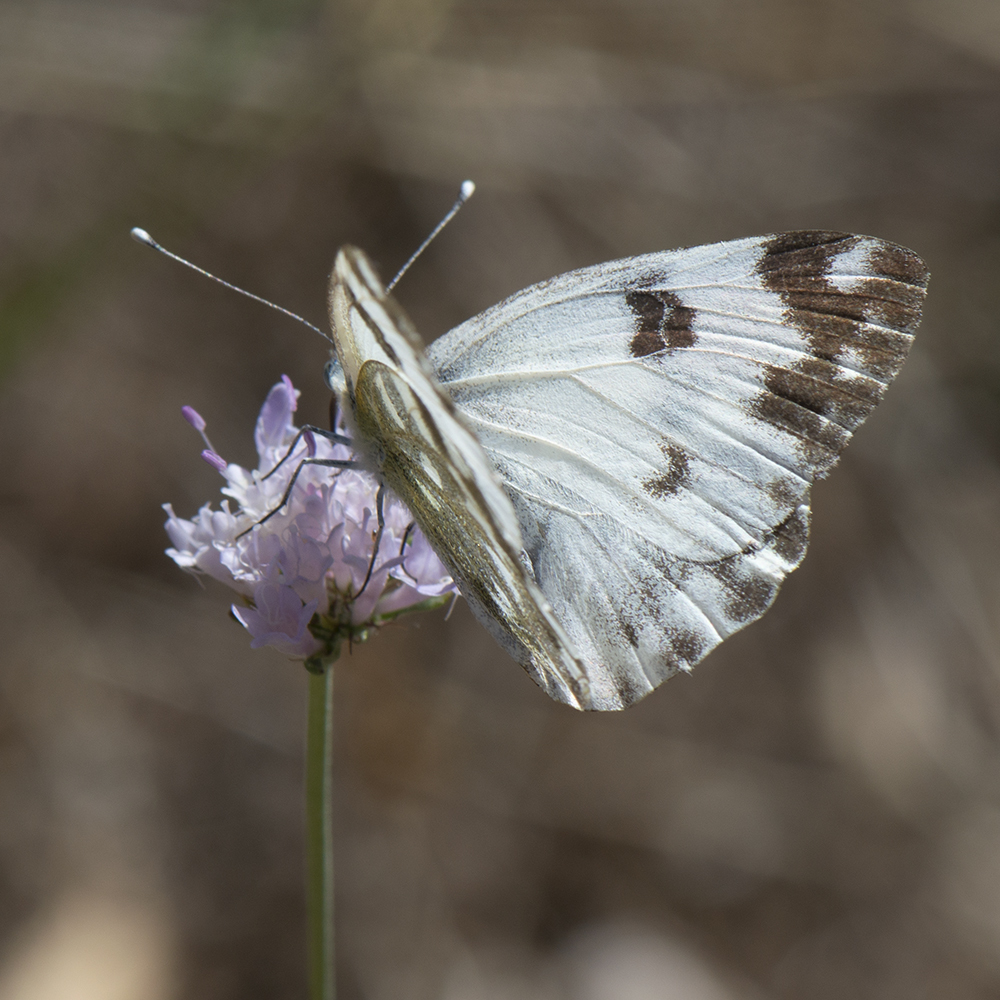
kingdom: Animalia
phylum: Arthropoda
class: Insecta
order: Lepidoptera
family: Pieridae
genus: Pontia
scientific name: Pontia edusa
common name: Eastern bath white
